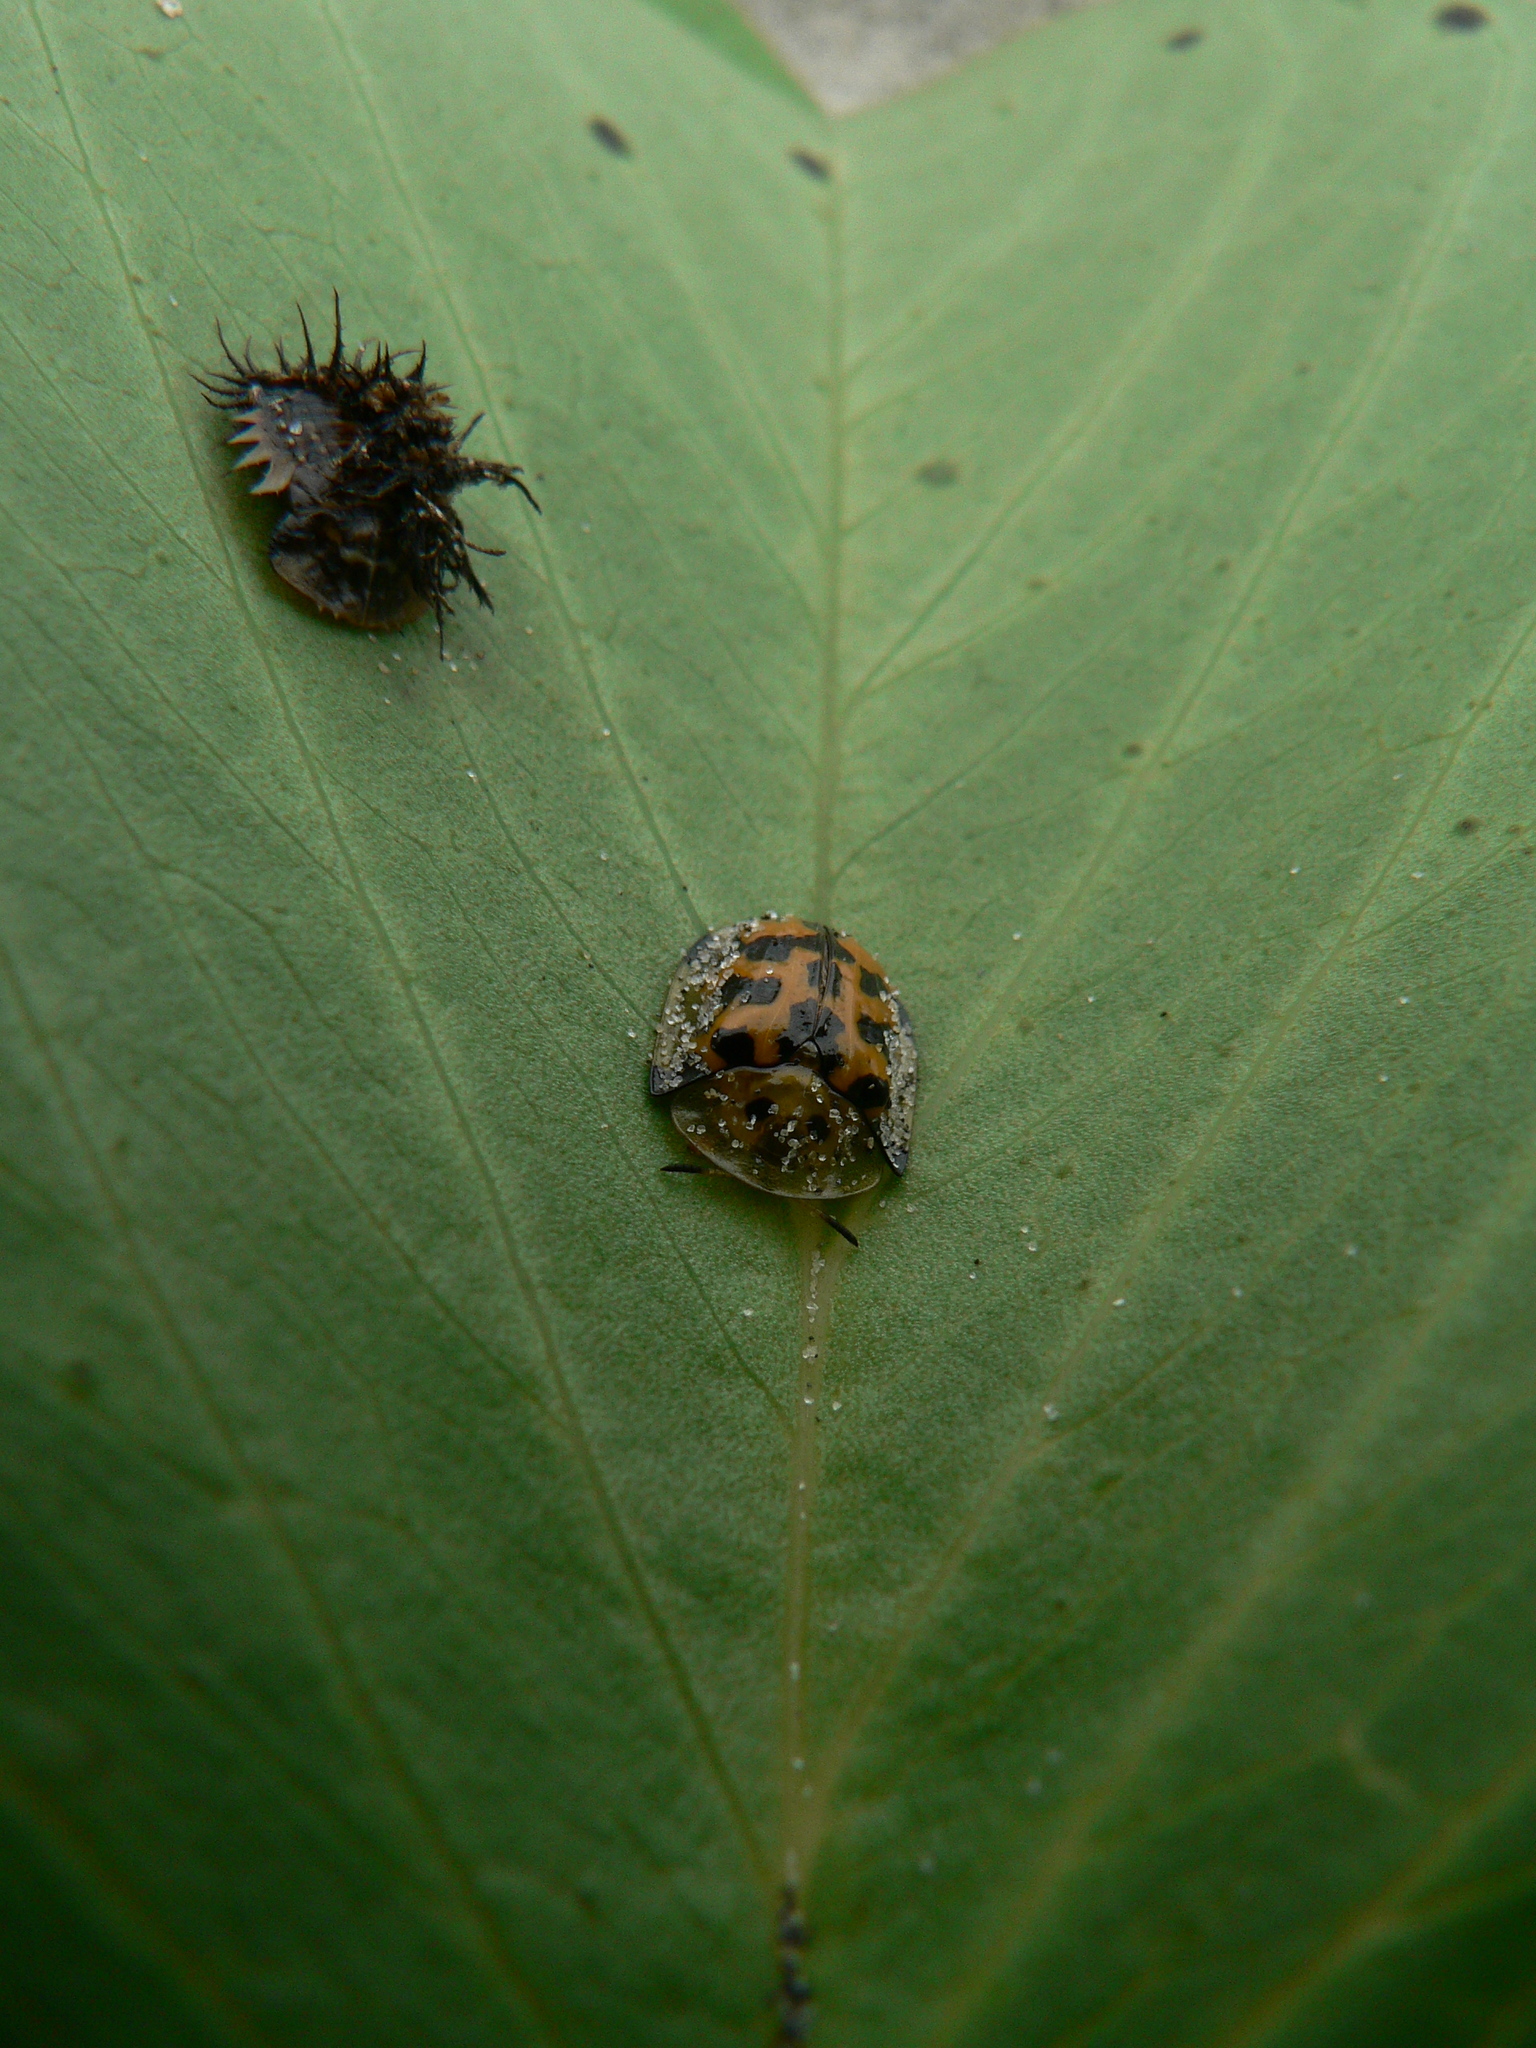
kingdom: Animalia
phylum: Arthropoda
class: Insecta
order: Coleoptera
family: Chrysomelidae
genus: Aspidimorpha
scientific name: Aspidimorpha deusta
